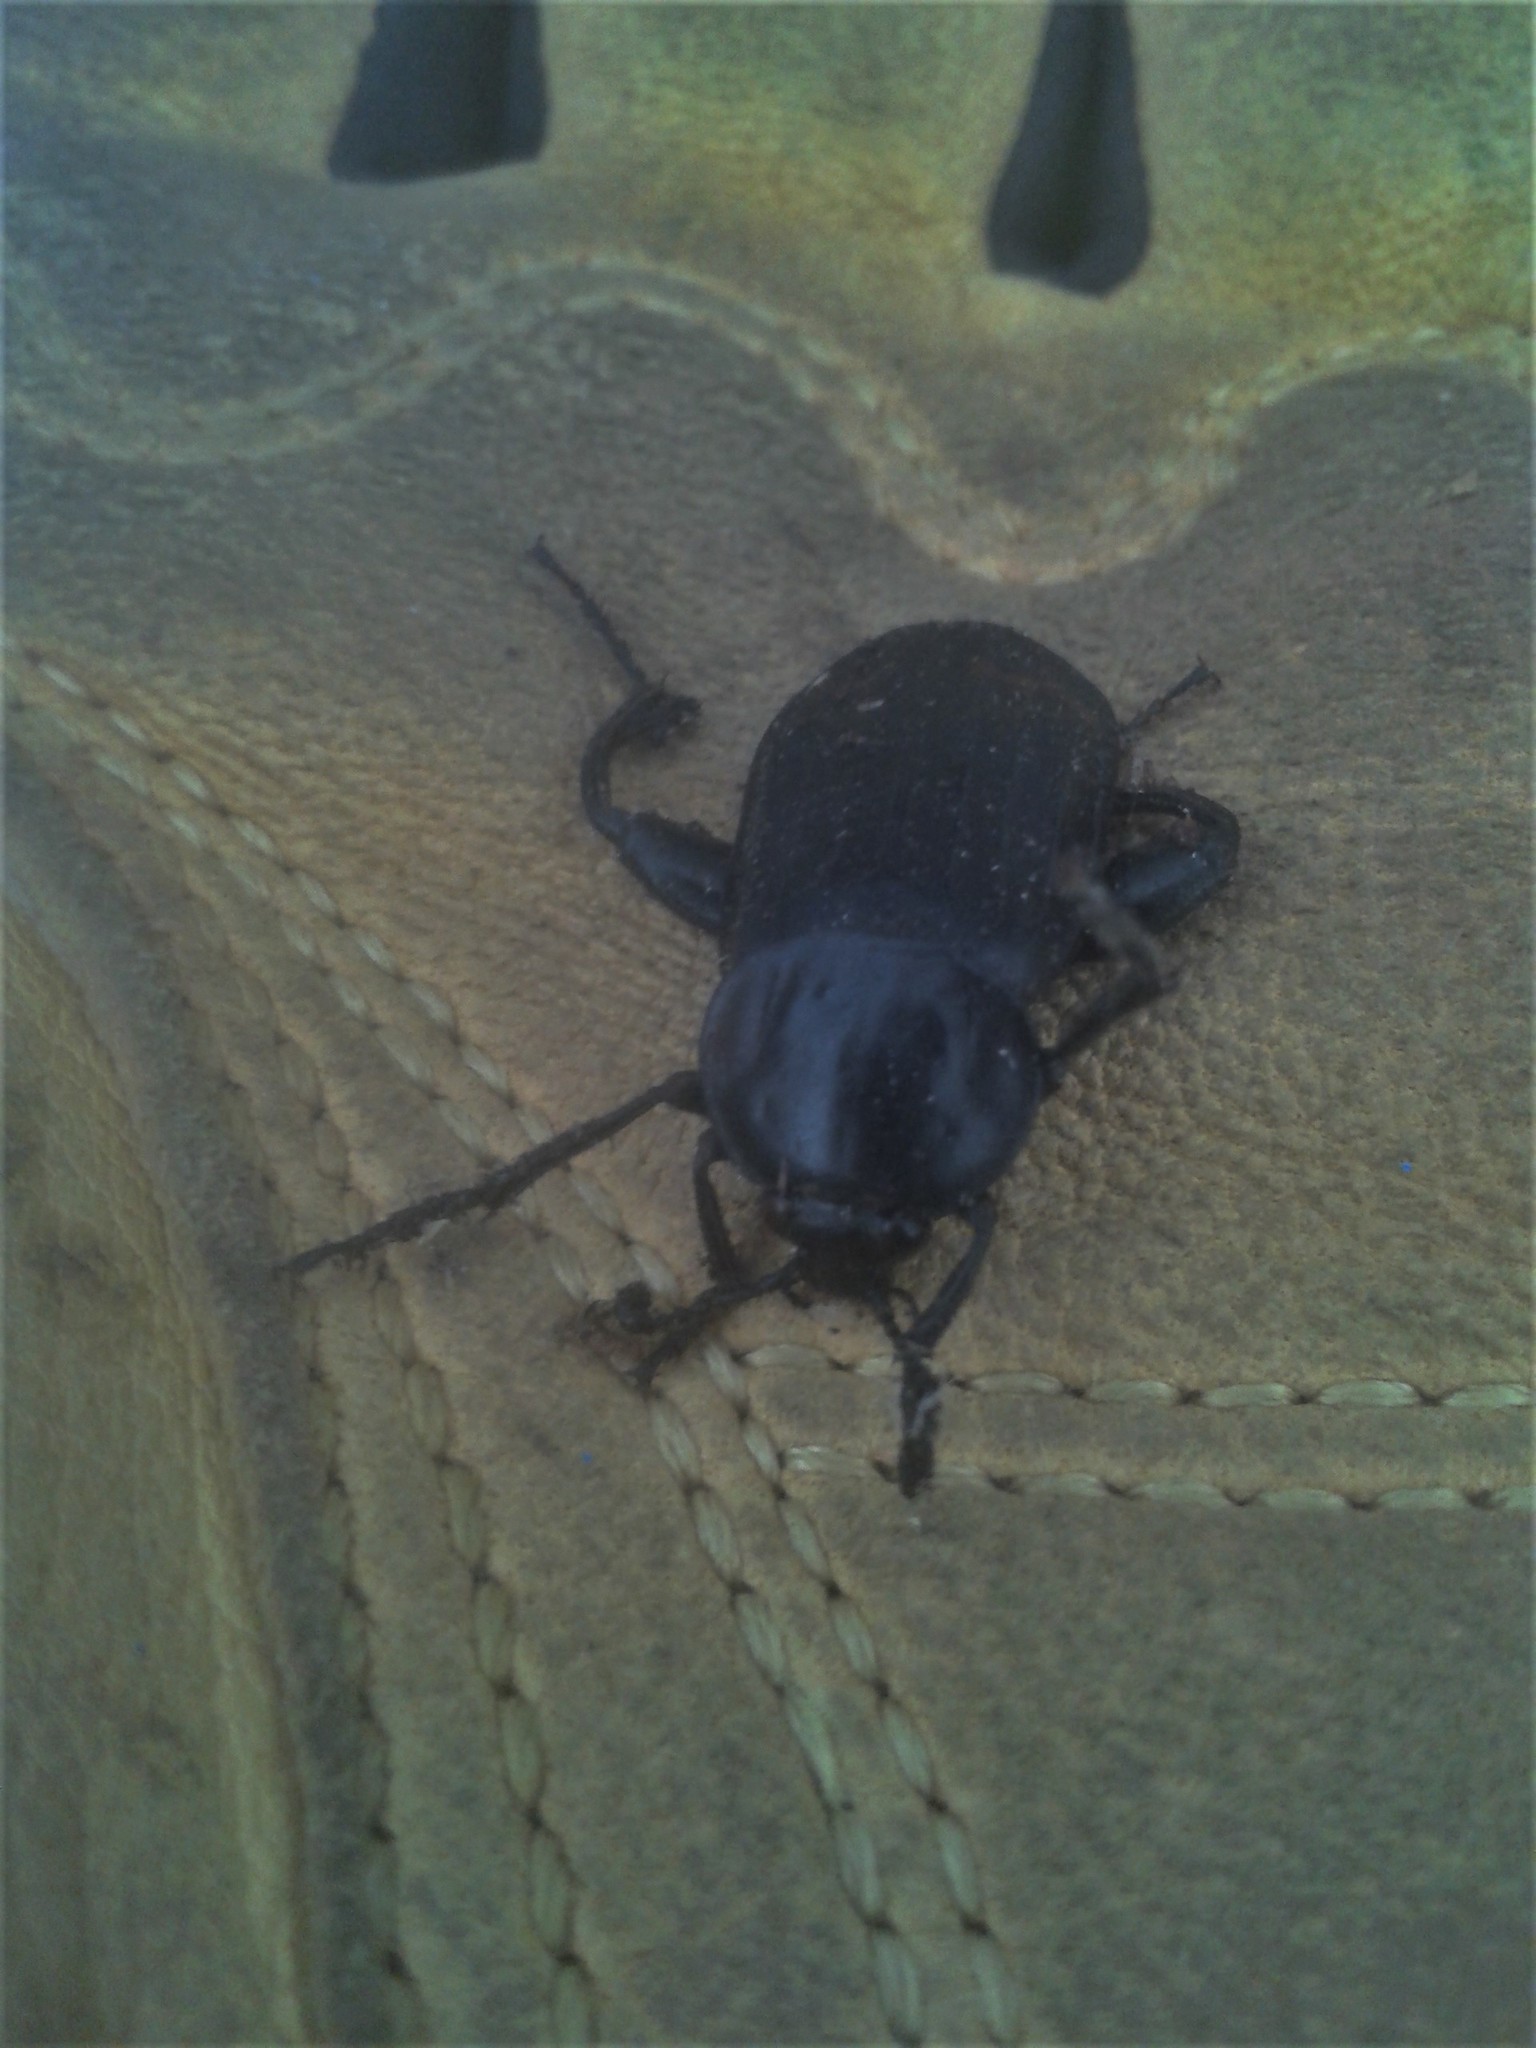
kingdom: Animalia
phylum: Arthropoda
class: Insecta
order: Coleoptera
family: Staphylinidae
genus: Necrodes
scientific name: Necrodes surinamensis
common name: Red-lined carrion beetle
